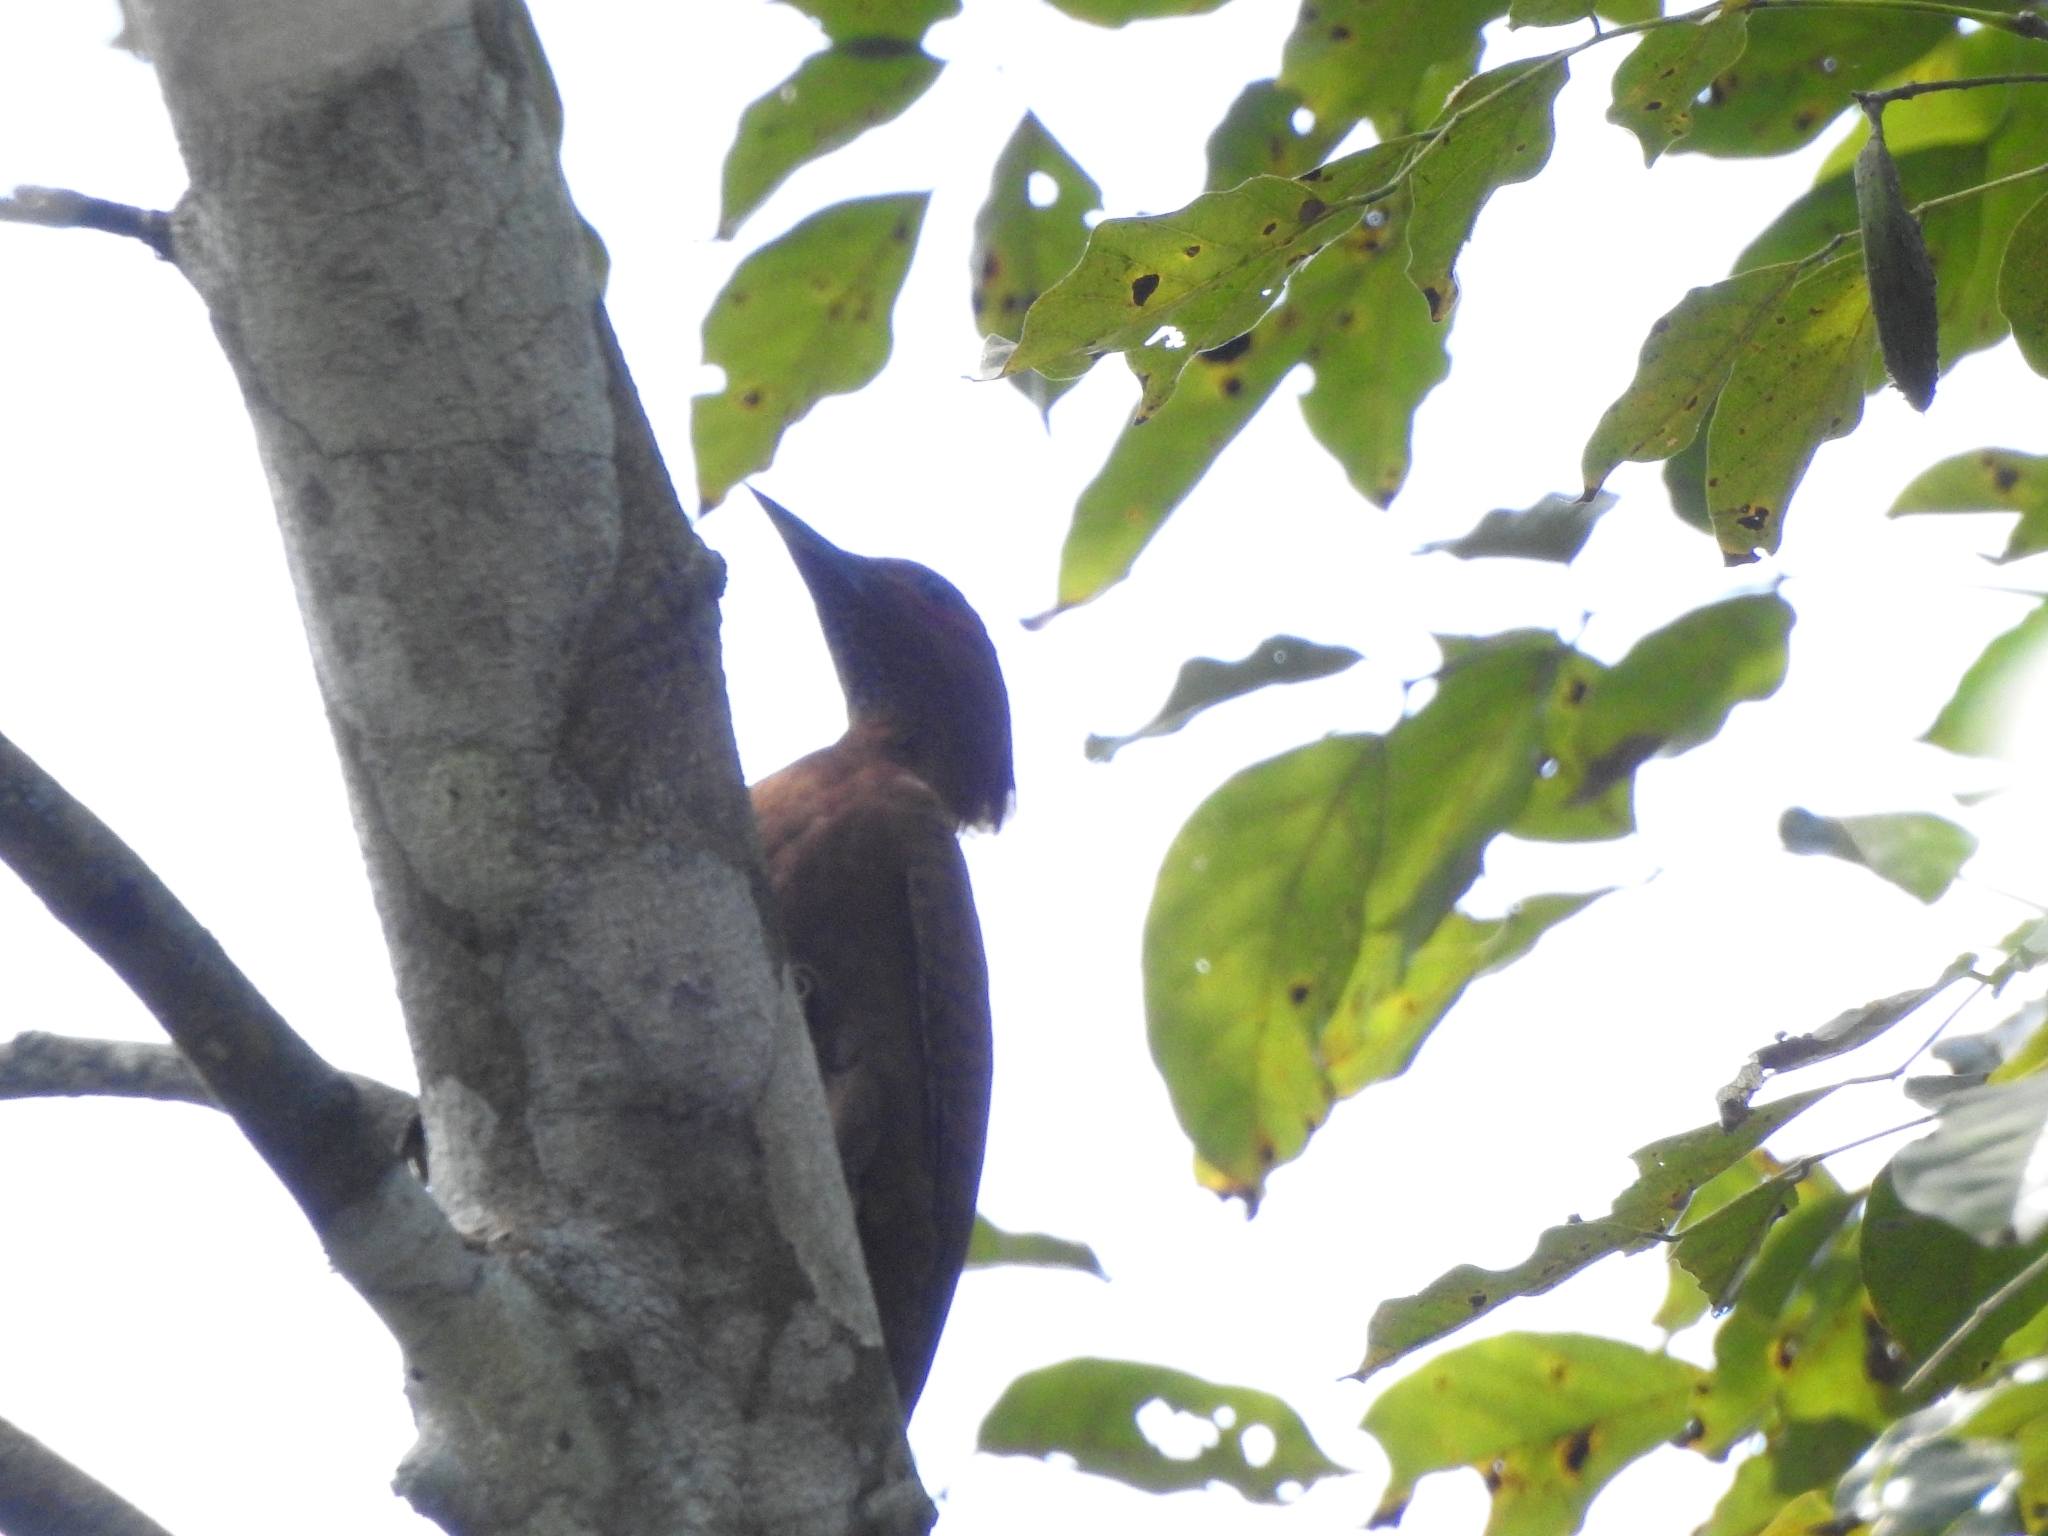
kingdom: Animalia
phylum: Chordata
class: Aves
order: Piciformes
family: Picidae
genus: Micropternus
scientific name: Micropternus brachyurus
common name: Rufous woodpecker
